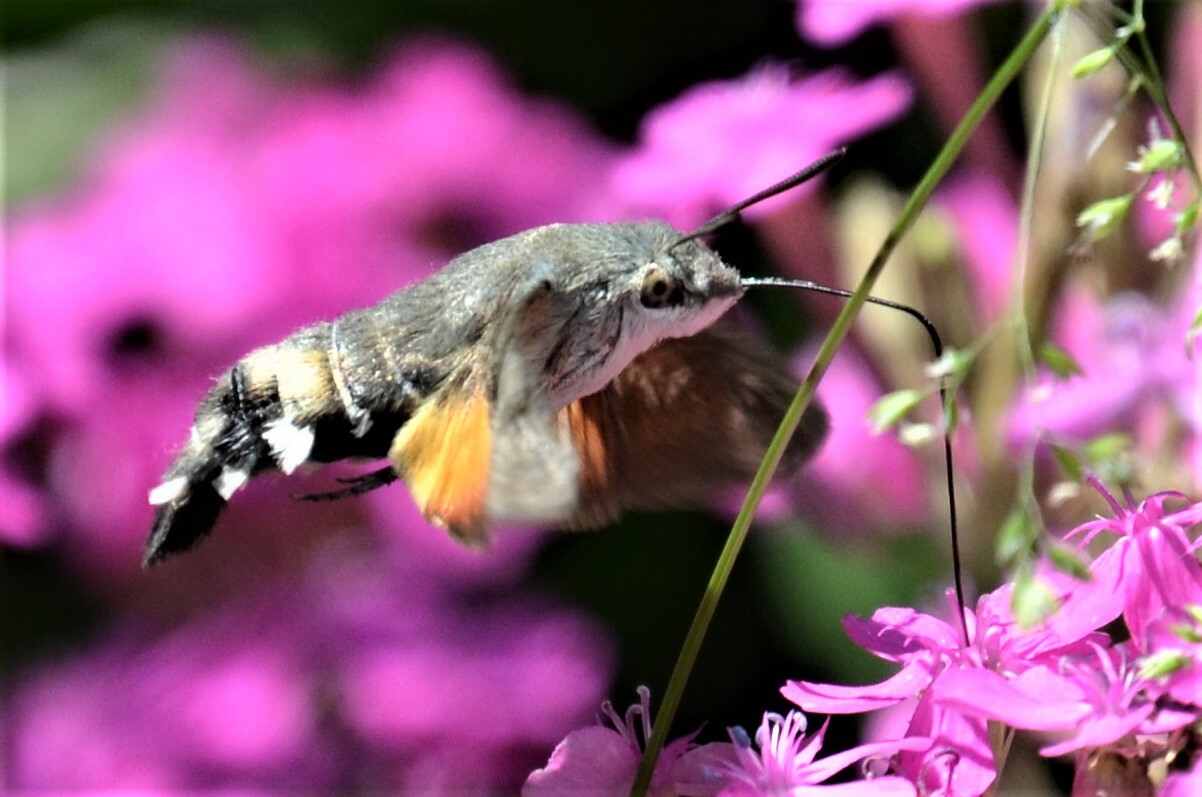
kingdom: Animalia
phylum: Arthropoda
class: Insecta
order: Lepidoptera
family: Sphingidae
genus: Macroglossum
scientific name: Macroglossum stellatarum
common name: Humming-bird hawk-moth
